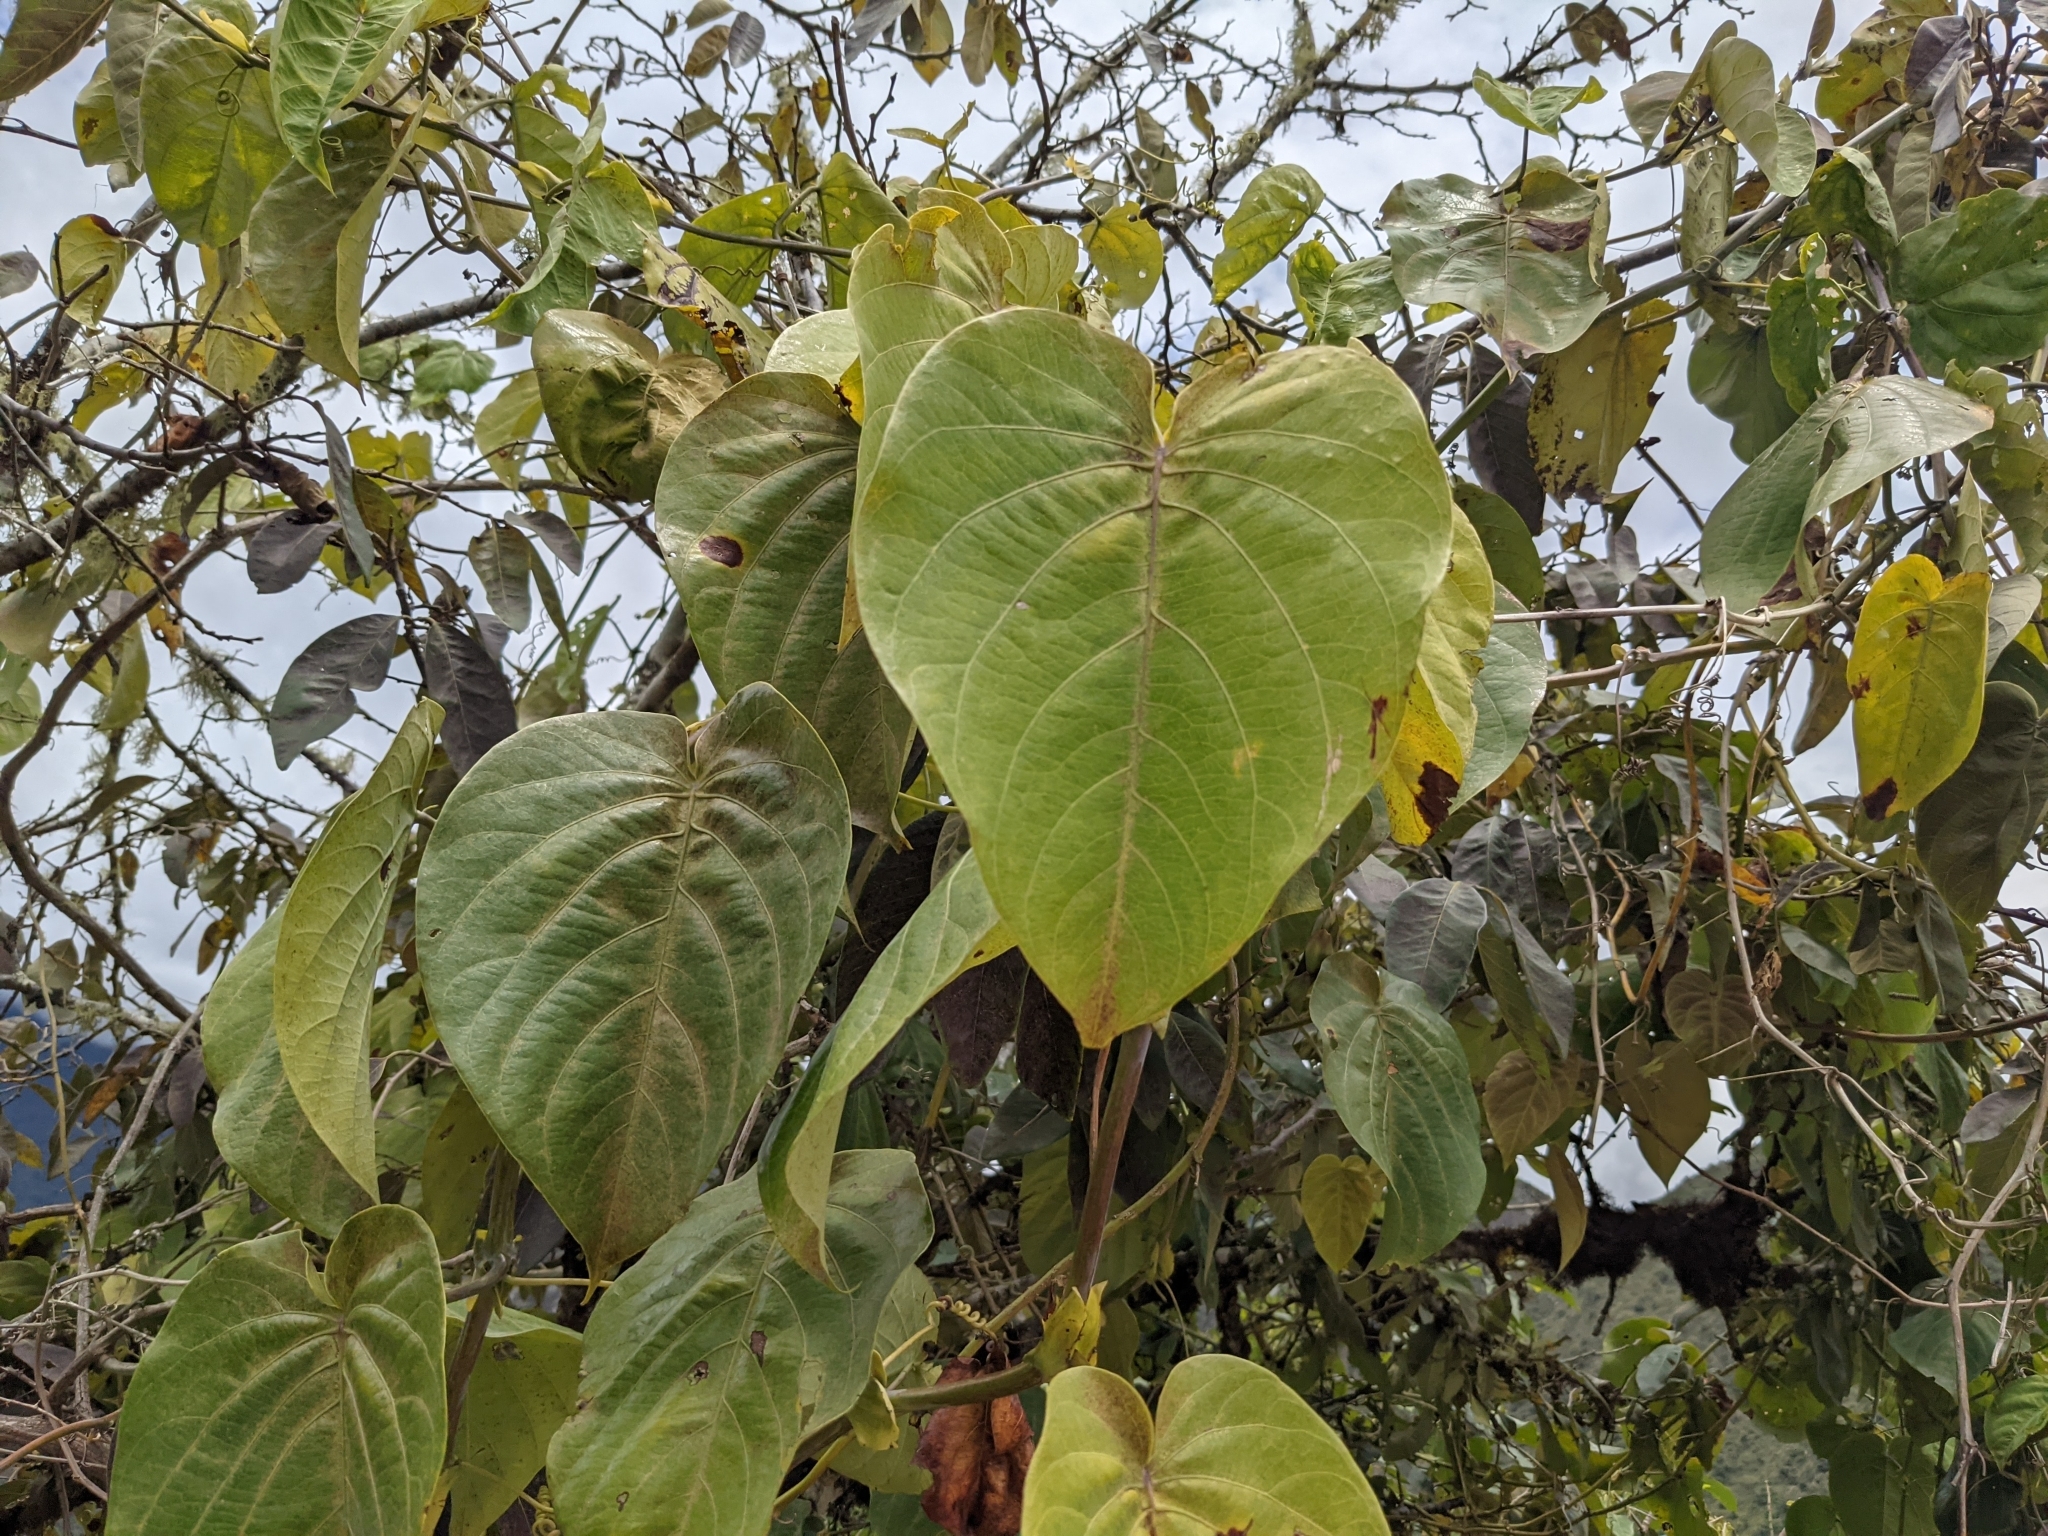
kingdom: Plantae
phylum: Tracheophyta
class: Magnoliopsida
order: Malpighiales
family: Passifloraceae
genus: Passiflora
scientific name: Passiflora ligularis
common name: Sweet granadilla
